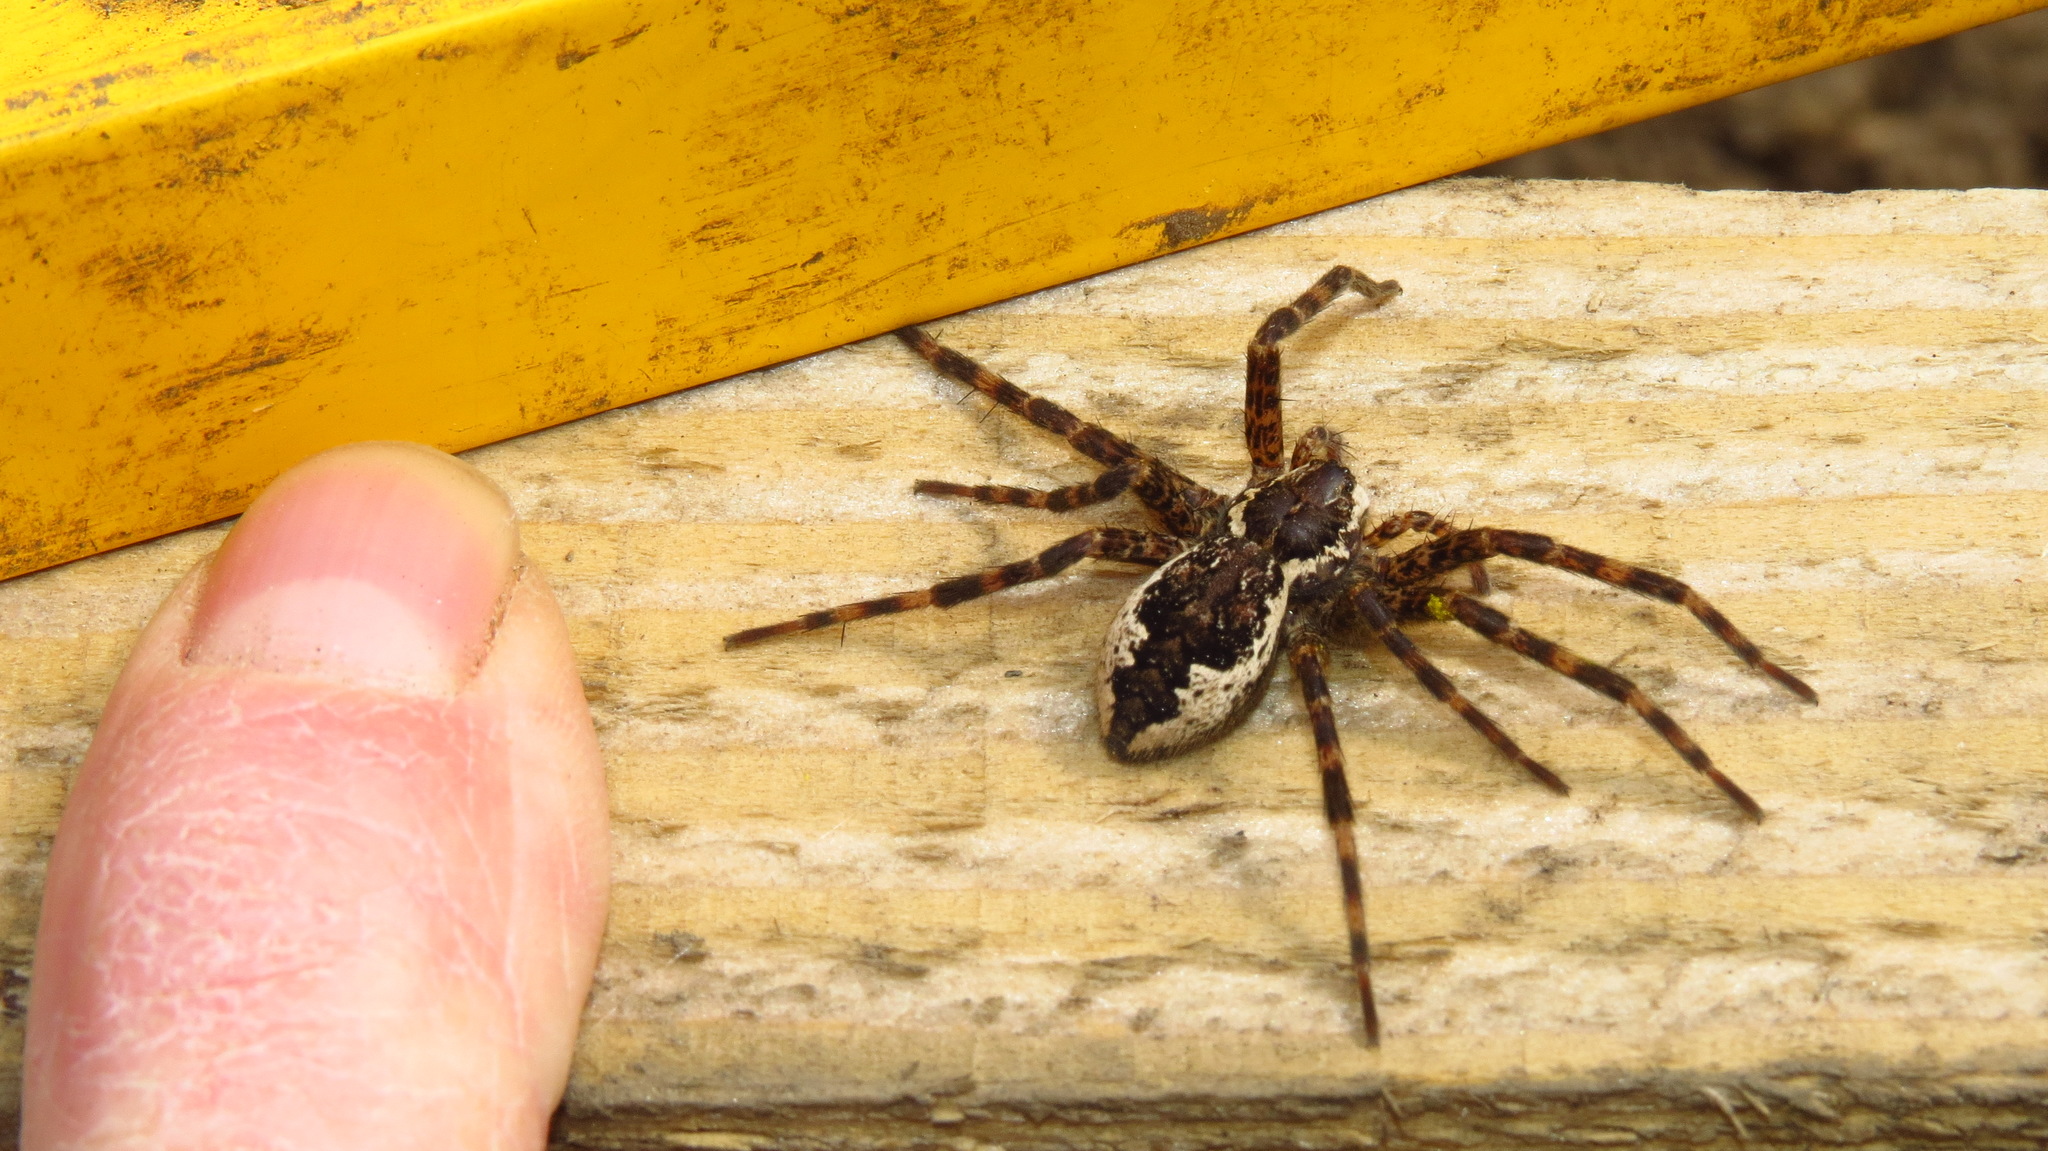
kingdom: Animalia
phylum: Arthropoda
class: Arachnida
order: Araneae
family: Pisauridae
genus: Dolomedes
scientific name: Dolomedes tenebrosus
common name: Dark fishing spider
